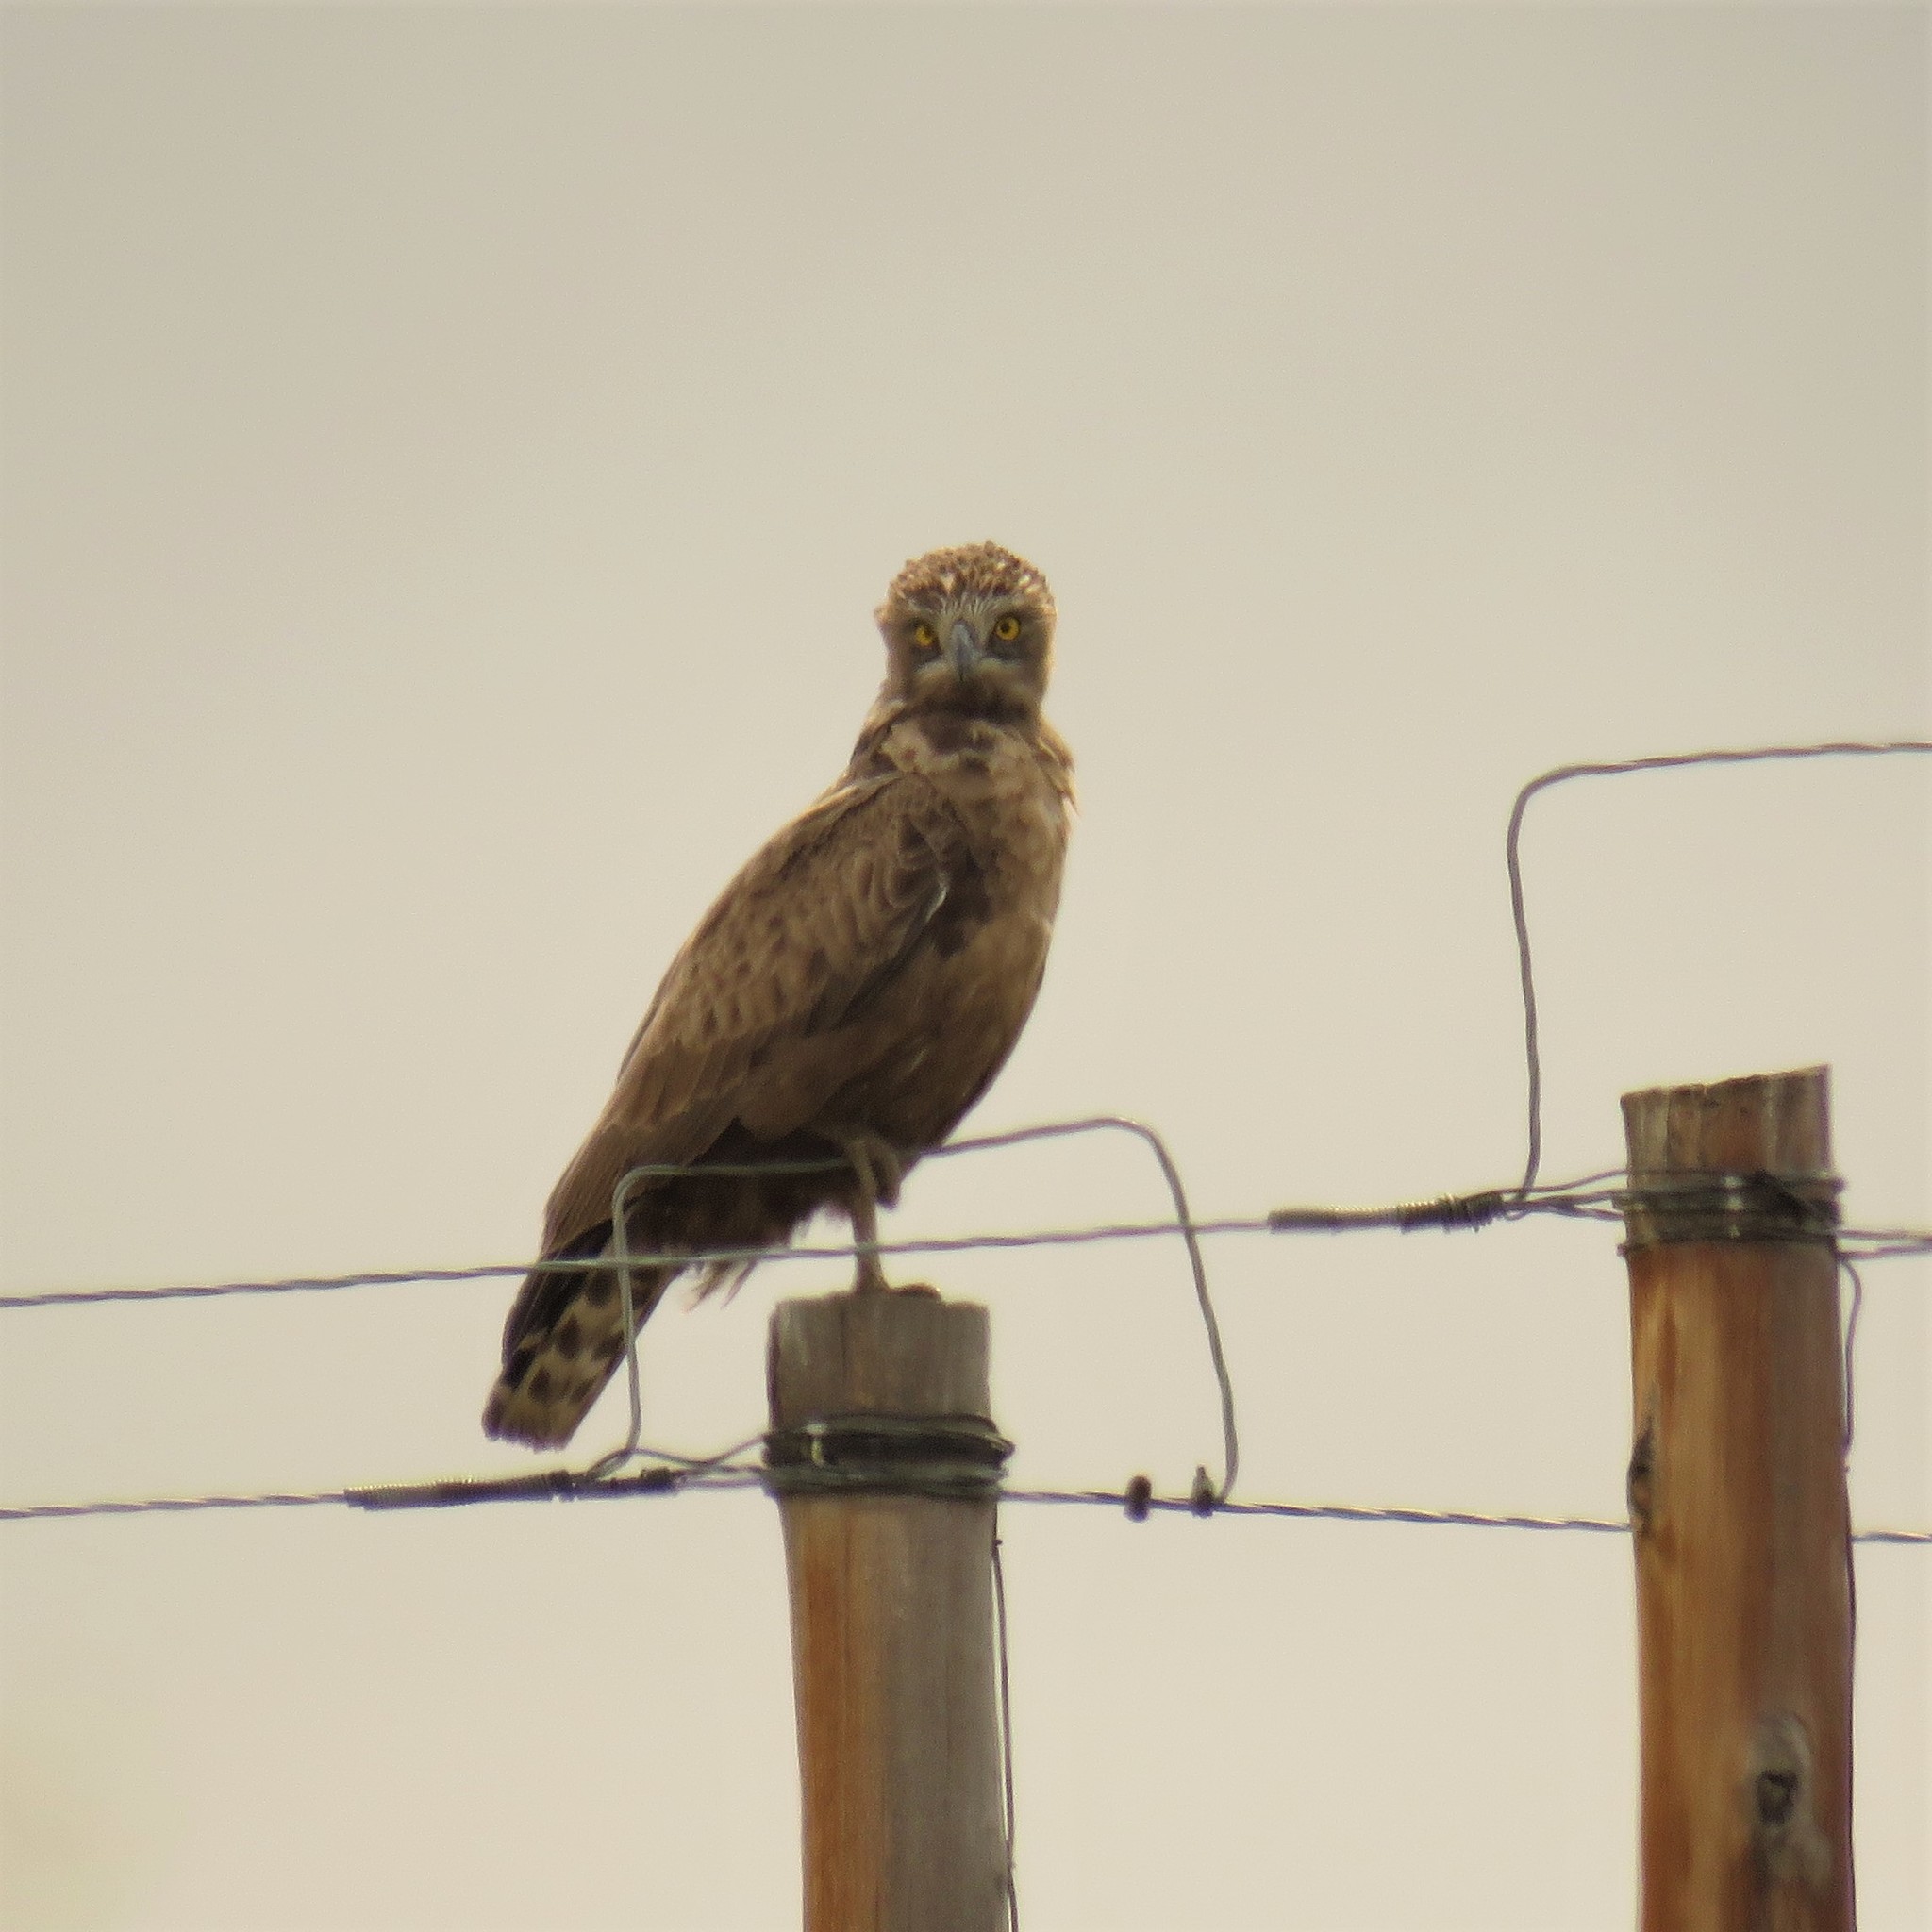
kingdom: Animalia
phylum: Chordata
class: Aves
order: Accipitriformes
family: Accipitridae
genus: Circaetus
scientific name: Circaetus cinereus
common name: Brown snake eagle
